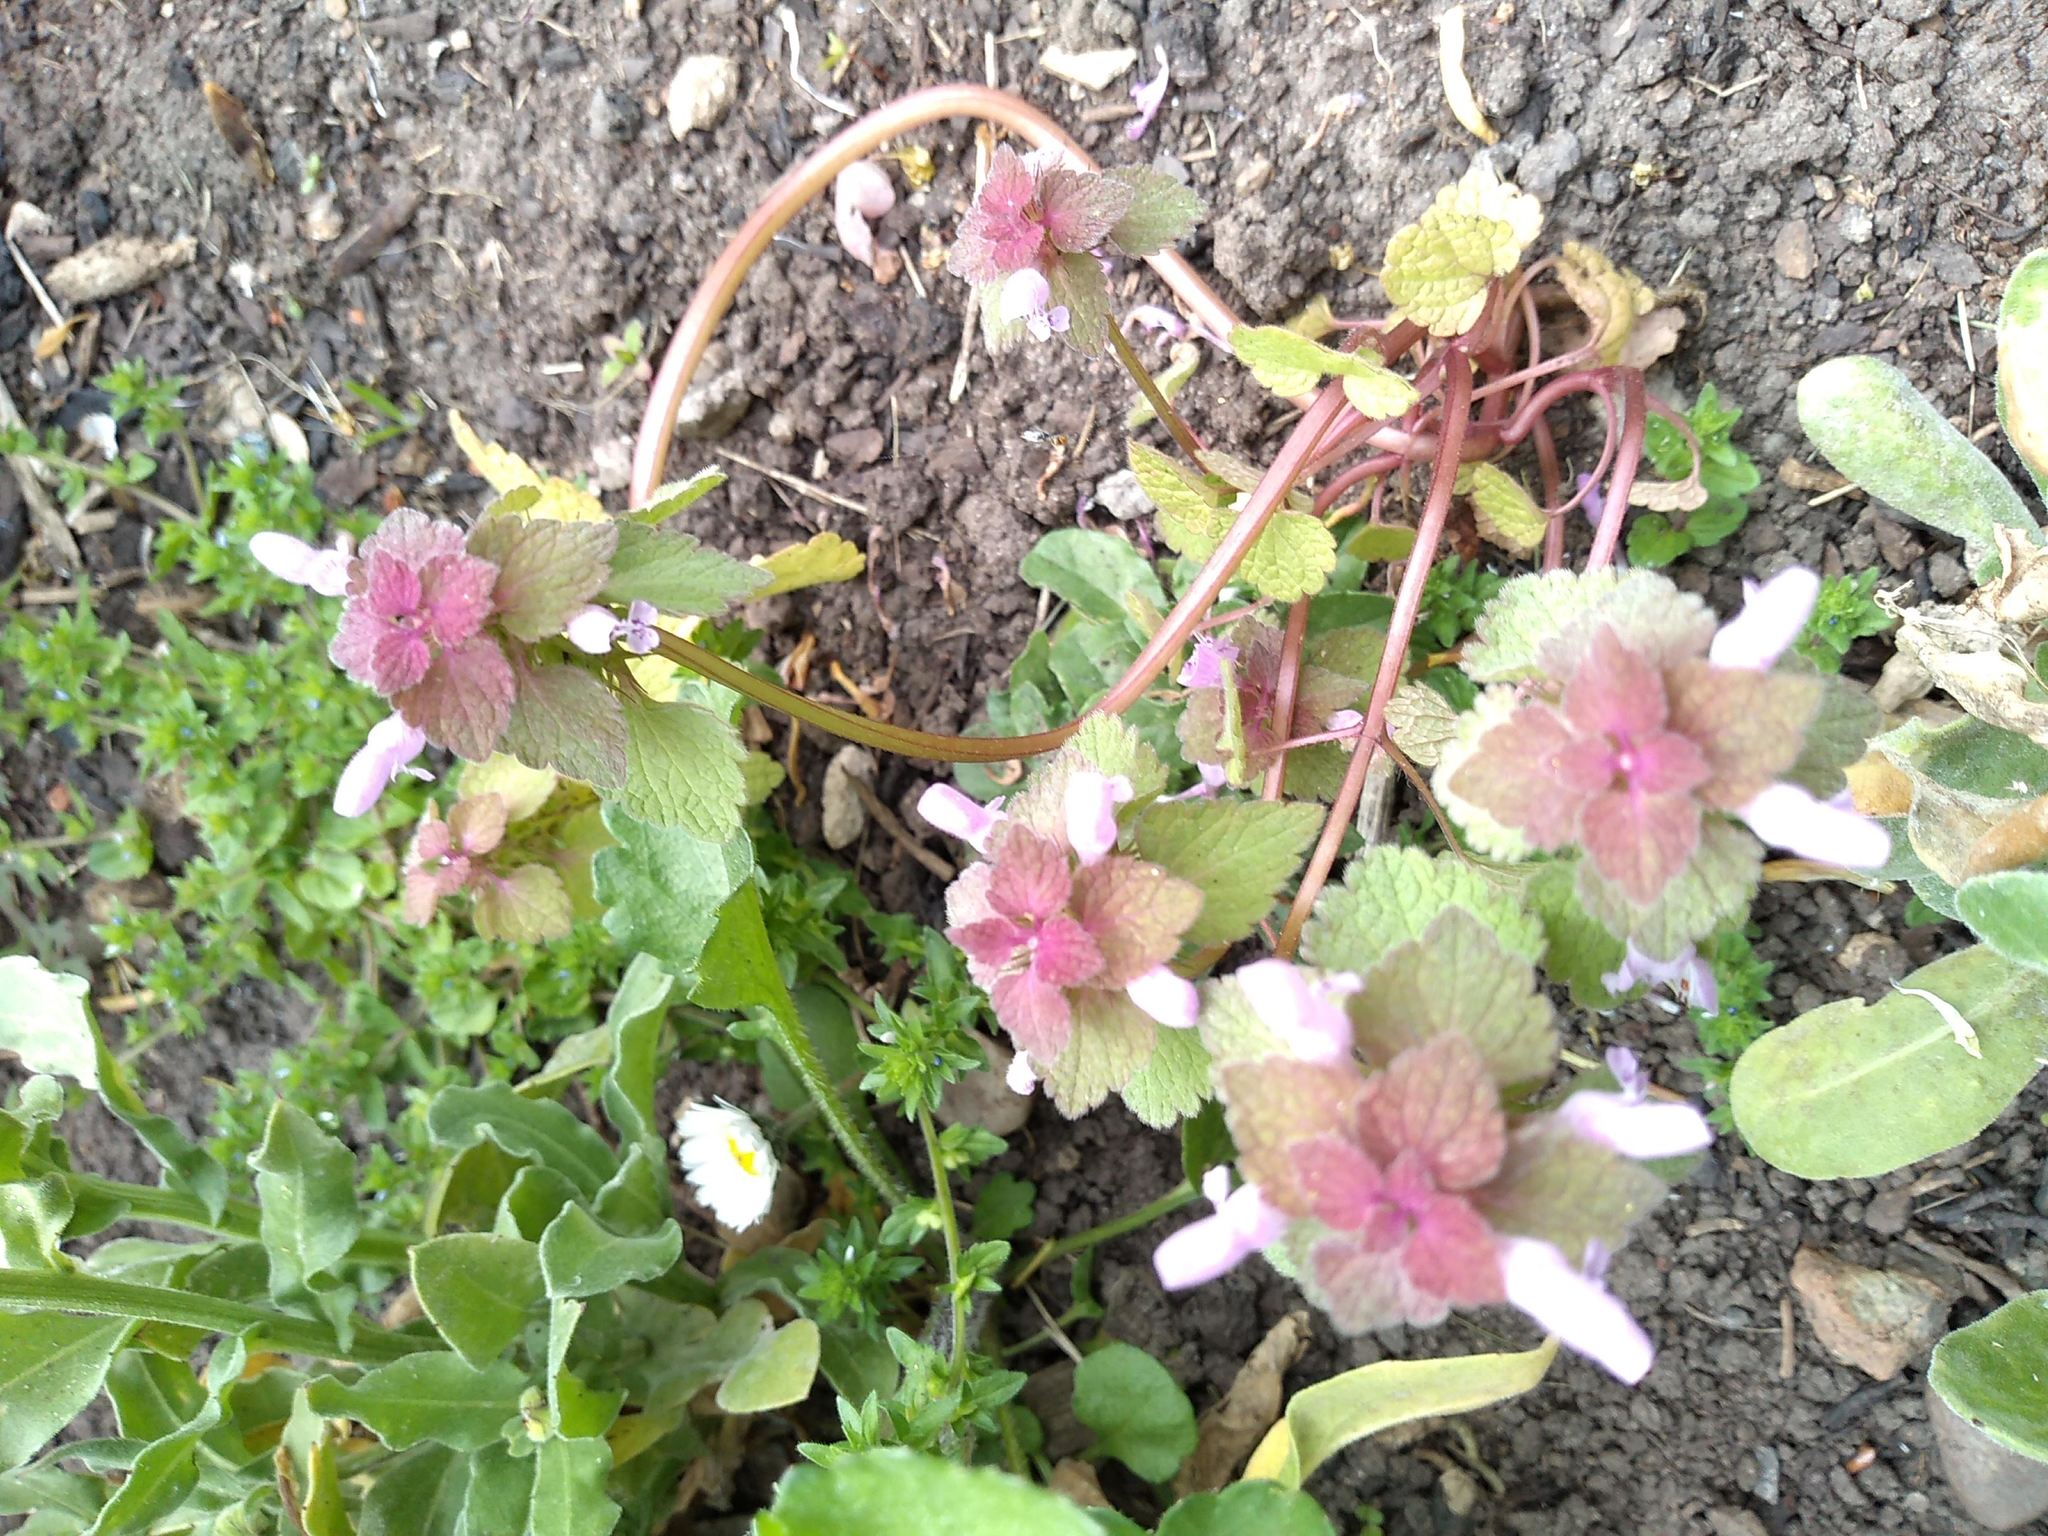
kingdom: Plantae
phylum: Tracheophyta
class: Magnoliopsida
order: Lamiales
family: Lamiaceae
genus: Lamium
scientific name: Lamium purpureum
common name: Red dead-nettle
